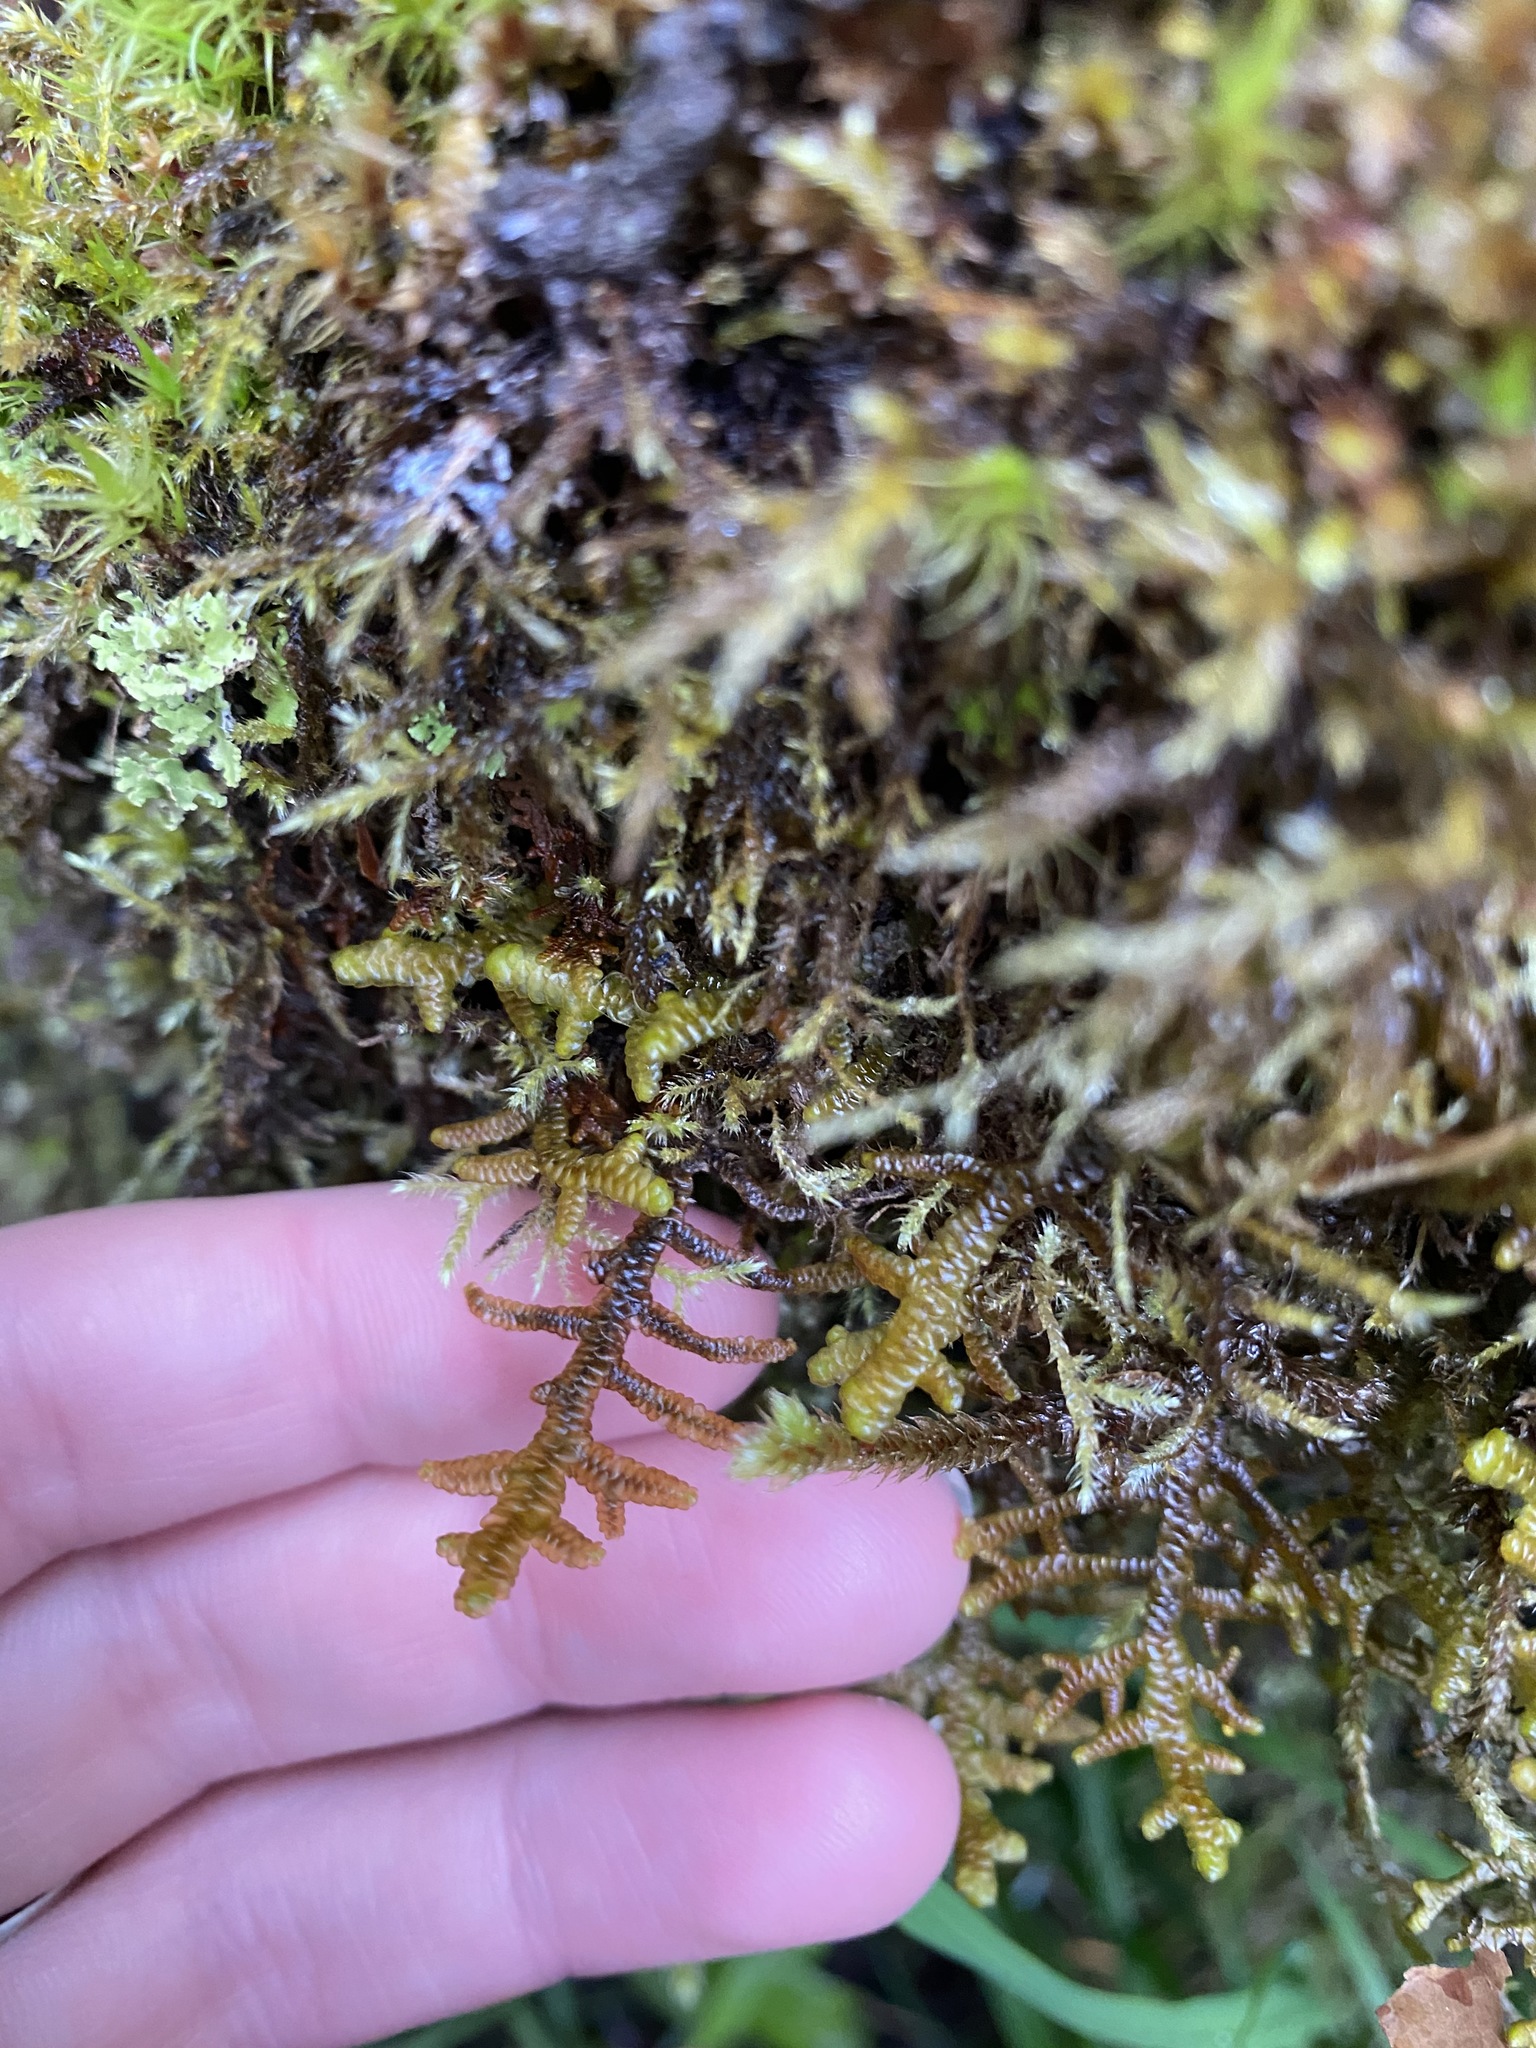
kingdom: Plantae
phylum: Marchantiophyta
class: Jungermanniopsida
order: Porellales
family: Porellaceae
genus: Porella
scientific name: Porella navicularis
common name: Tree ruffle liverwort
